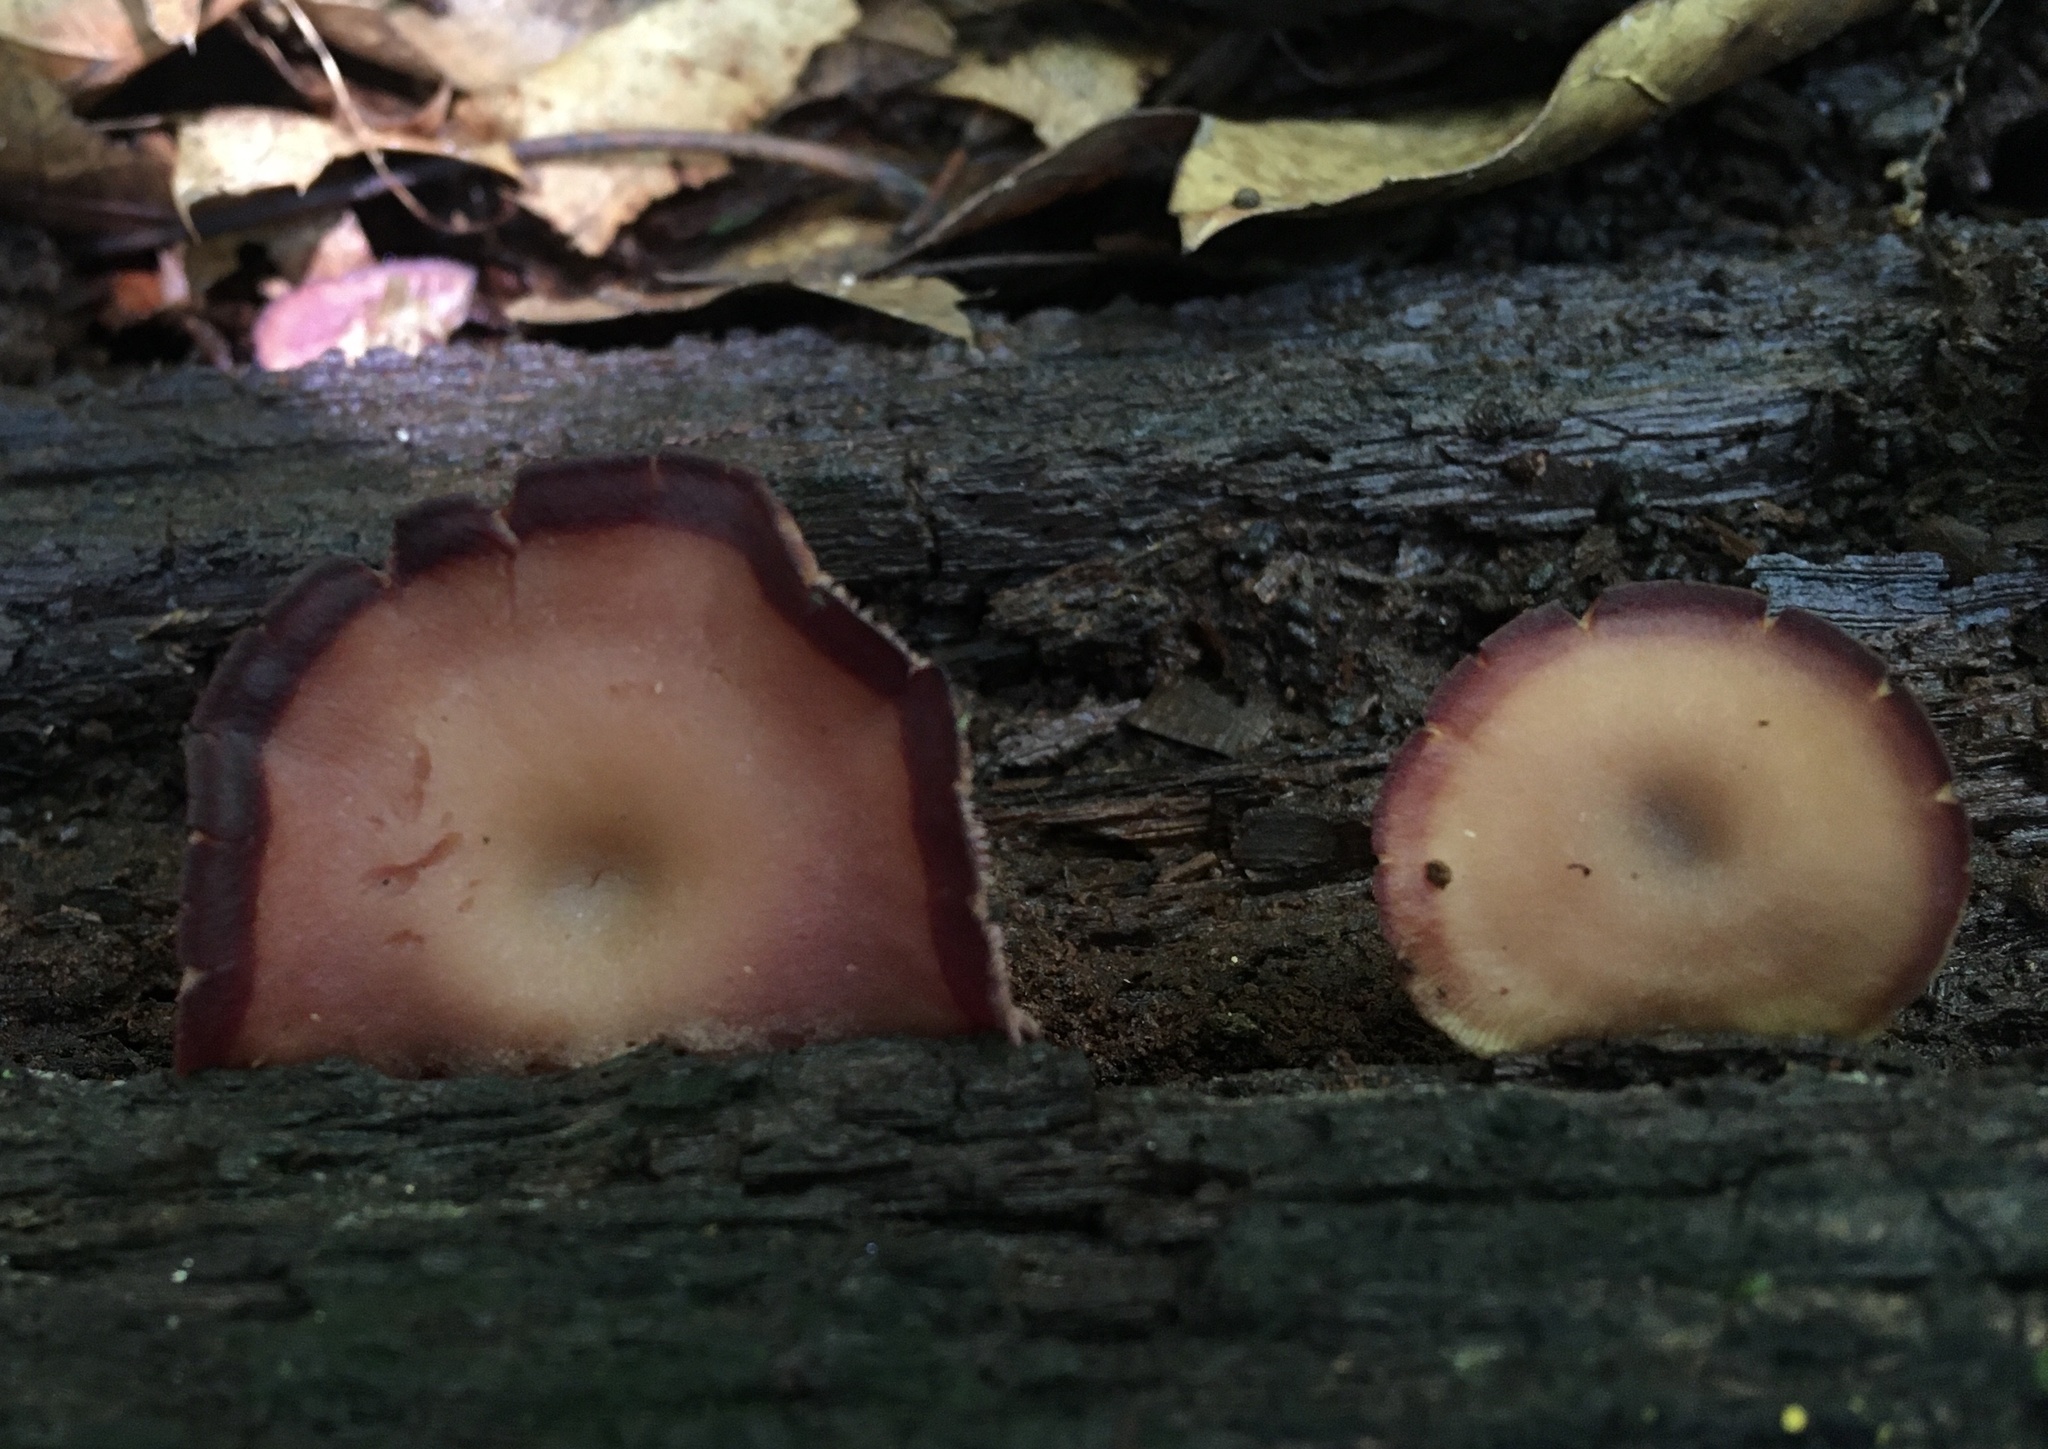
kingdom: Fungi
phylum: Basidiomycota
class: Agaricomycetes
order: Agaricales
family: Callistosporiaceae
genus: Callistosporium
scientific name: Callistosporium purpureomarginatum
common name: Purple-edged lute
